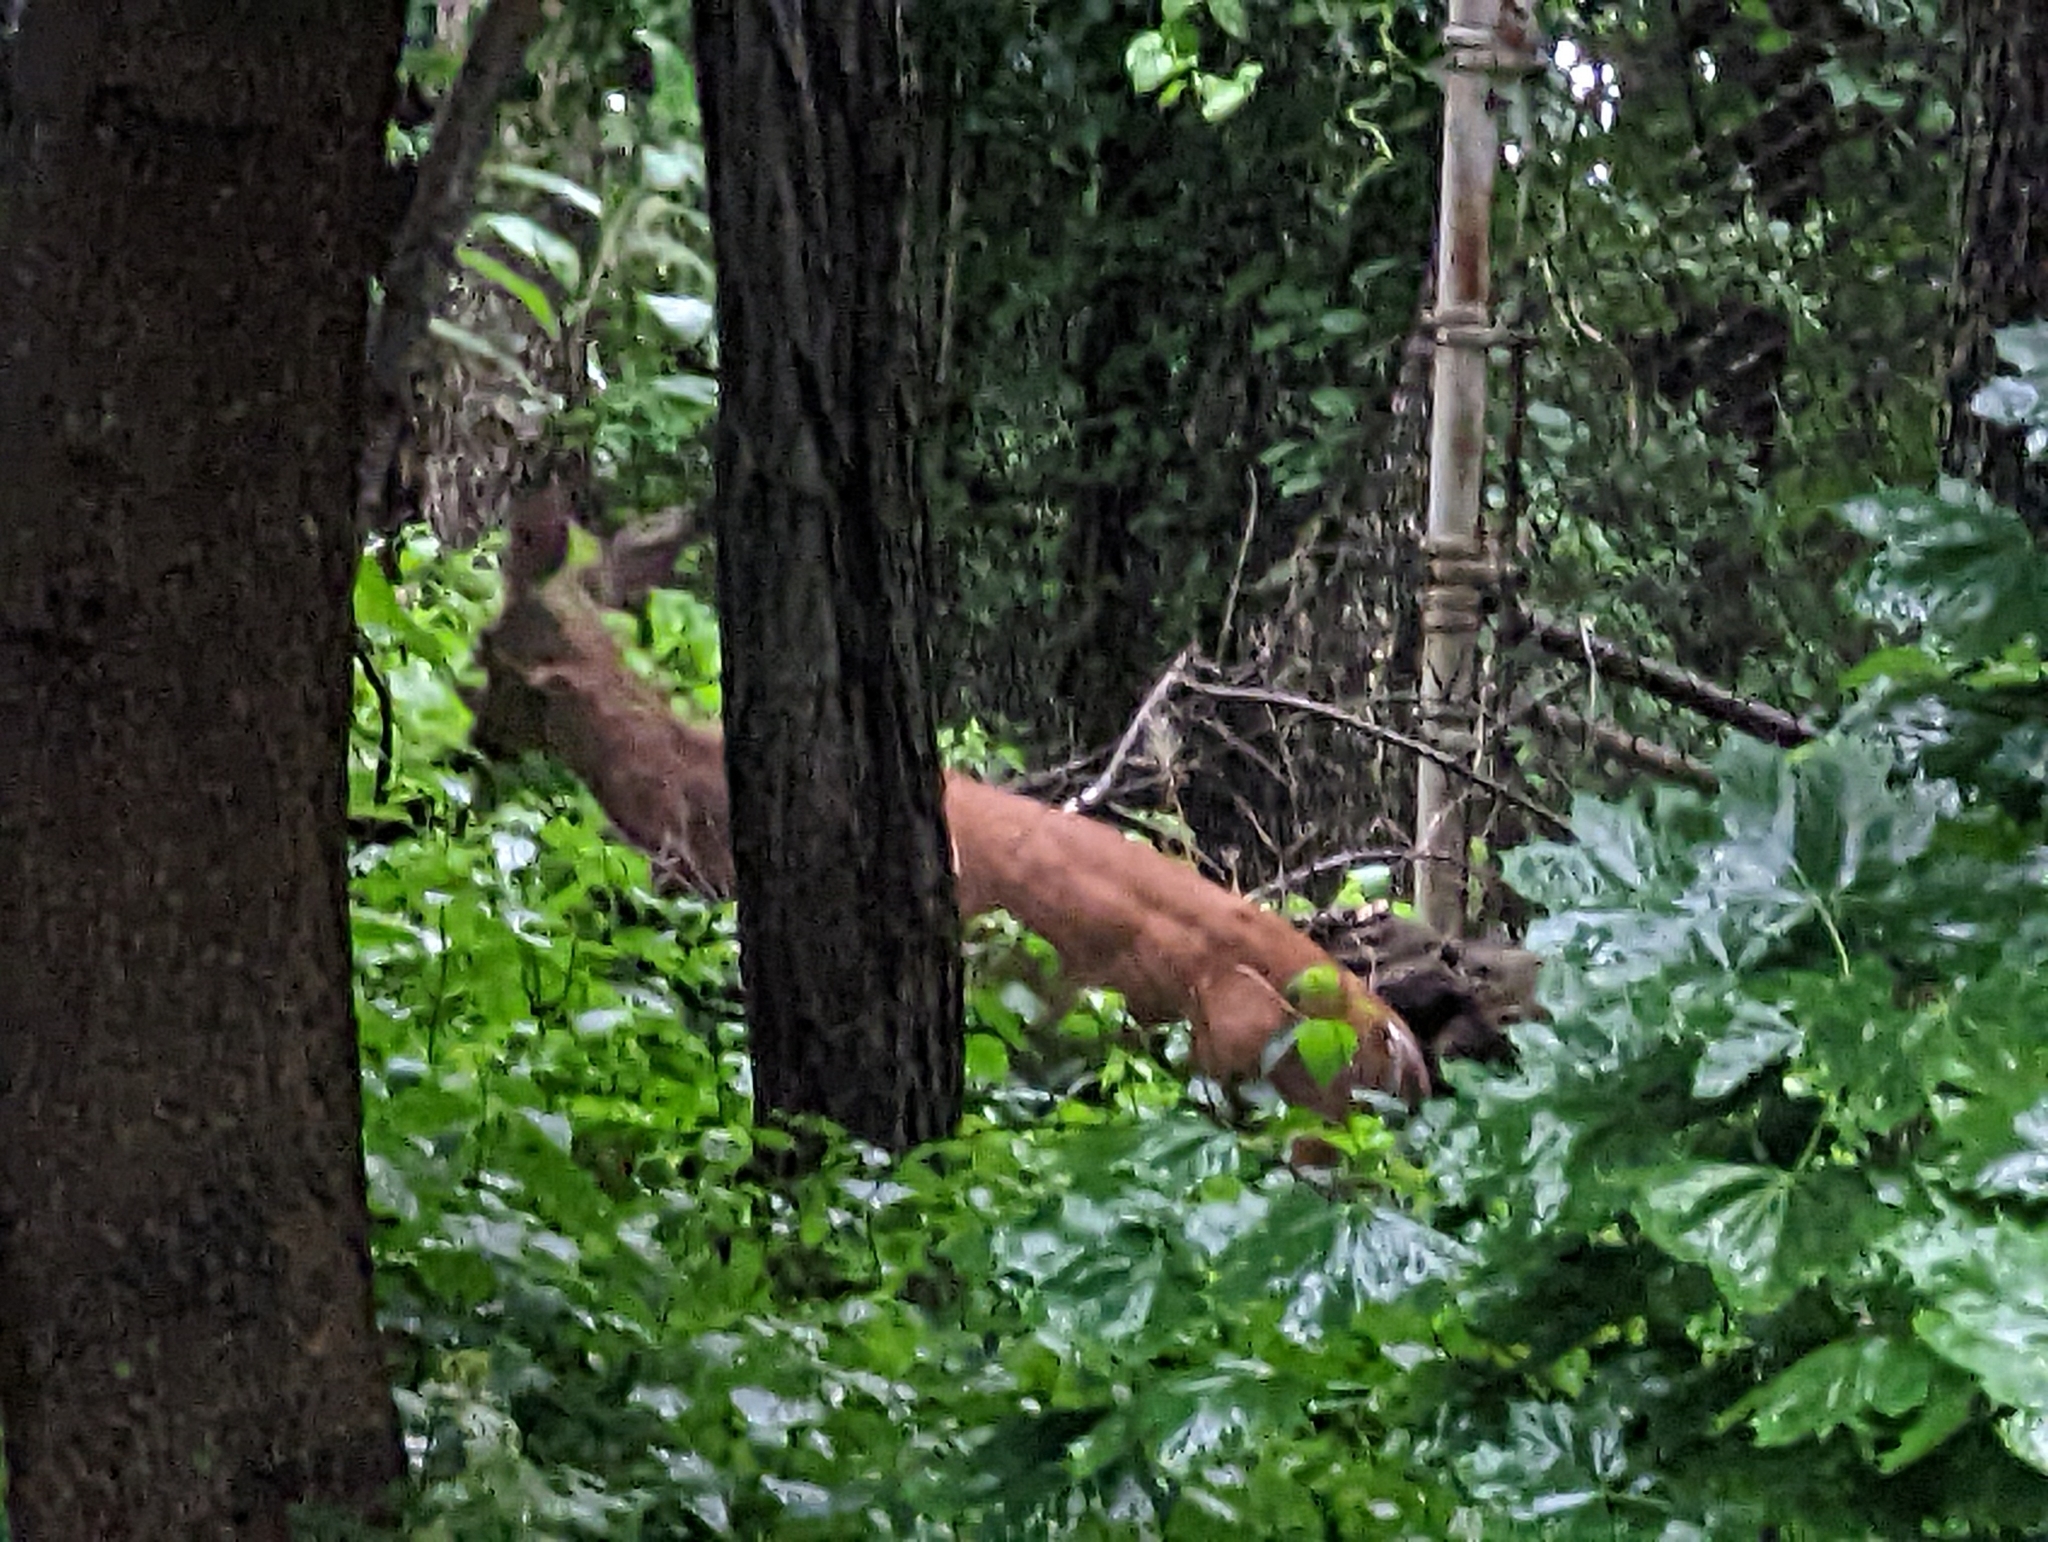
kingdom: Animalia
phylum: Chordata
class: Mammalia
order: Artiodactyla
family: Cervidae
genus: Odocoileus
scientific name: Odocoileus virginianus
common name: White-tailed deer
